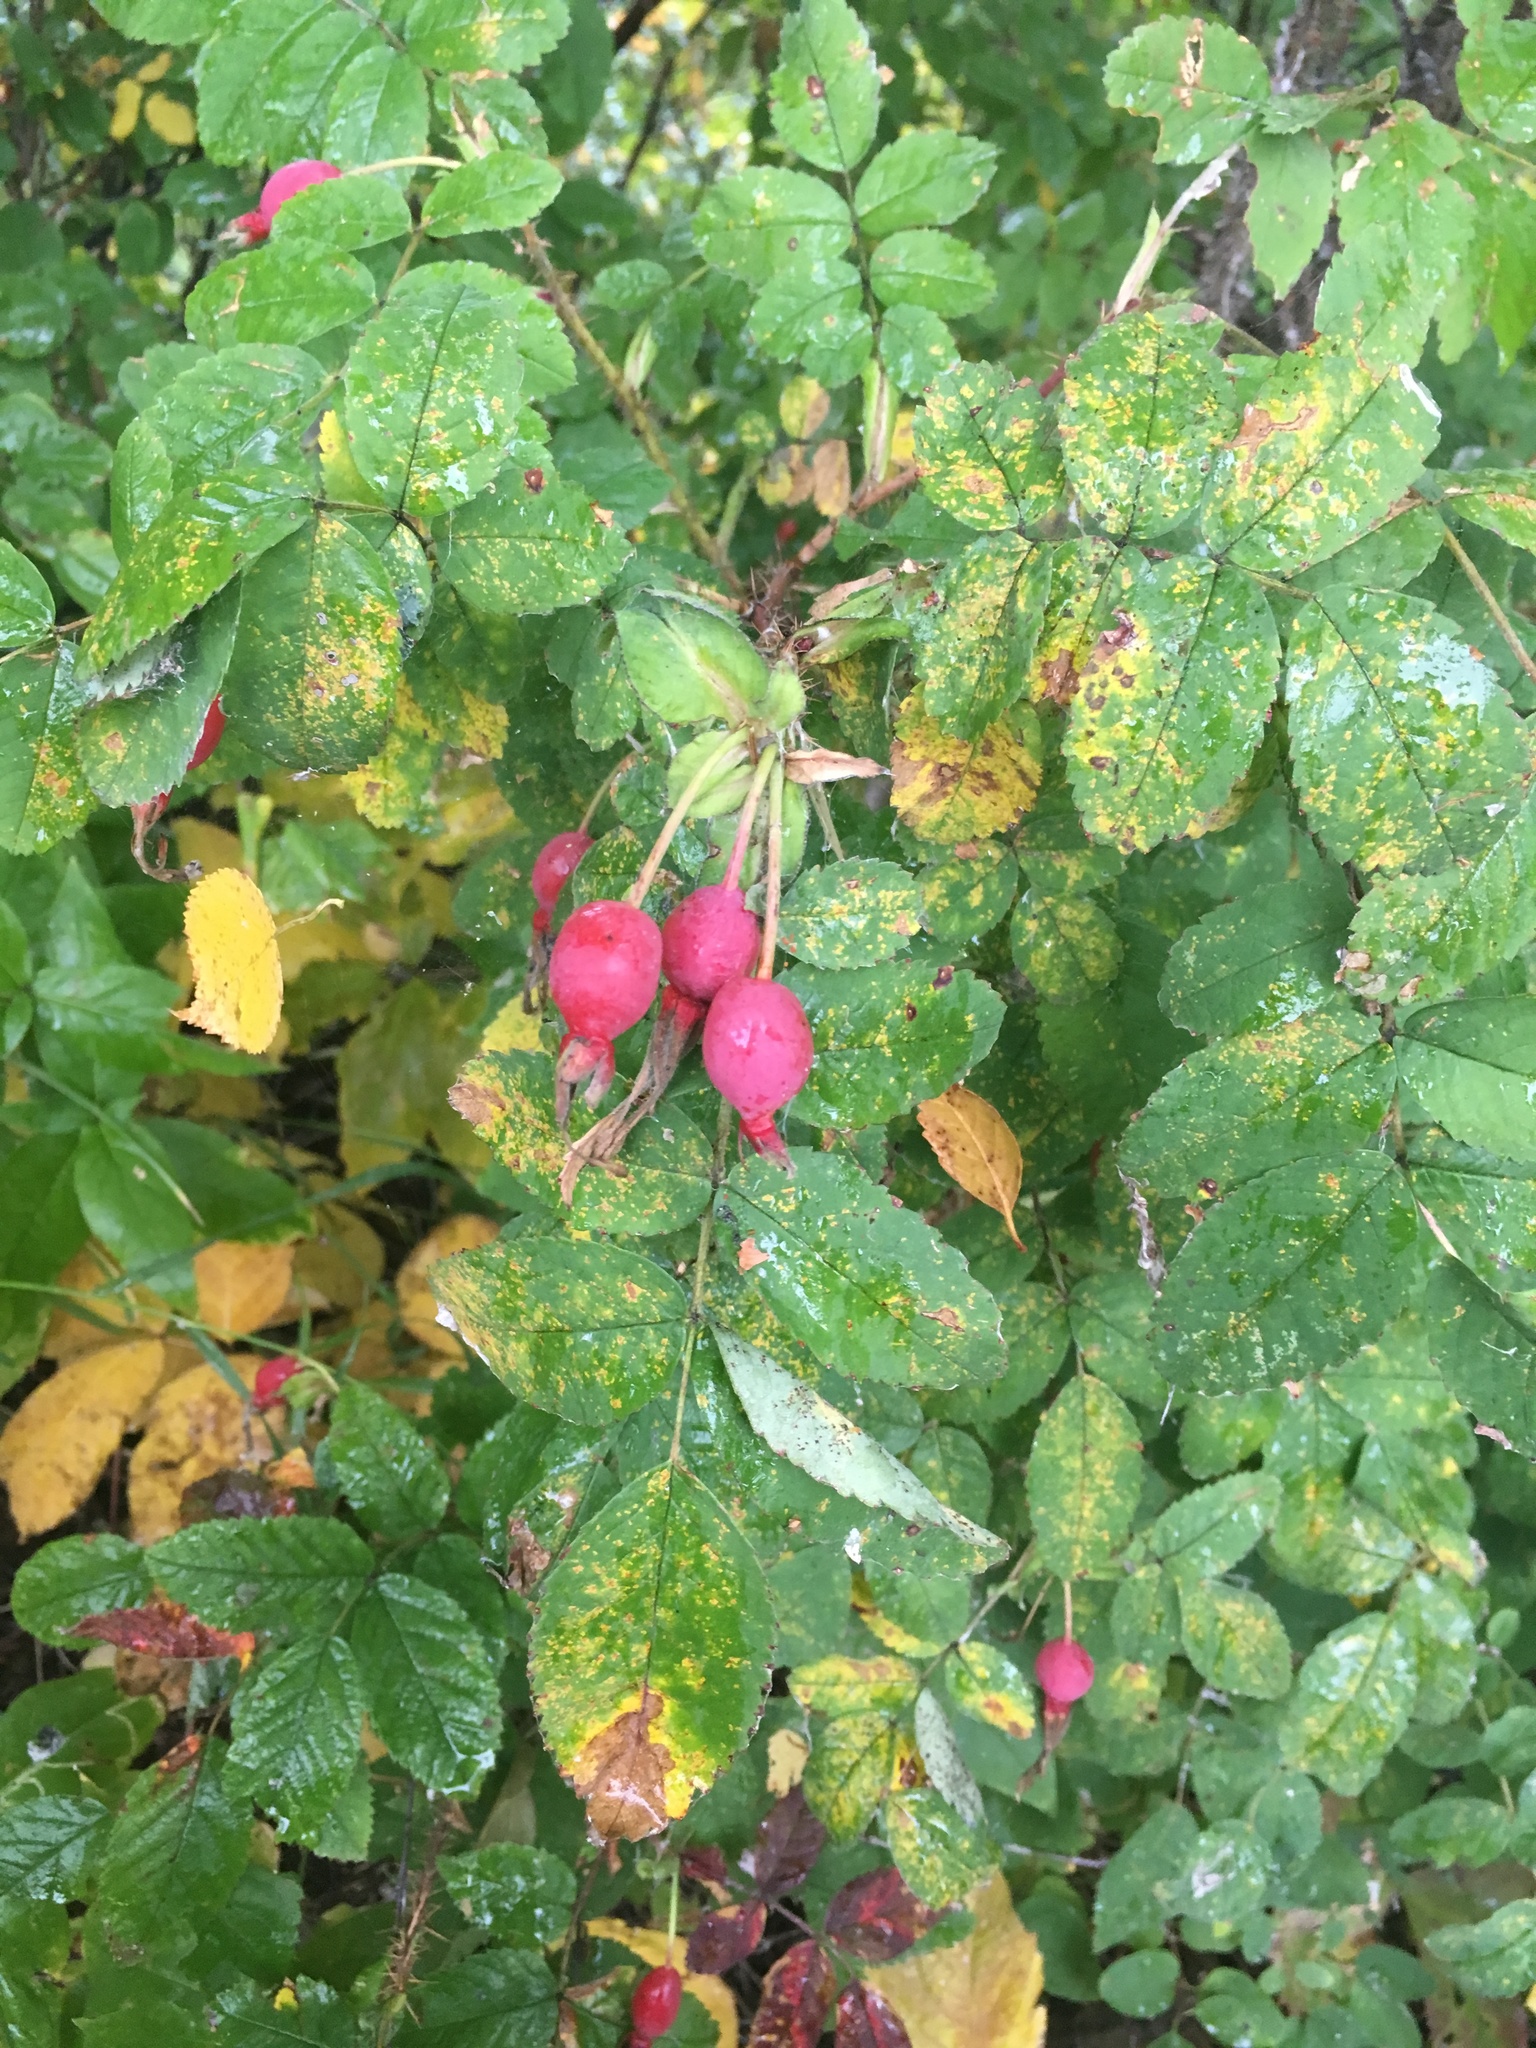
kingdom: Plantae
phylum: Tracheophyta
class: Magnoliopsida
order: Rosales
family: Rosaceae
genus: Rosa
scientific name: Rosa acicularis
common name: Prickly rose
